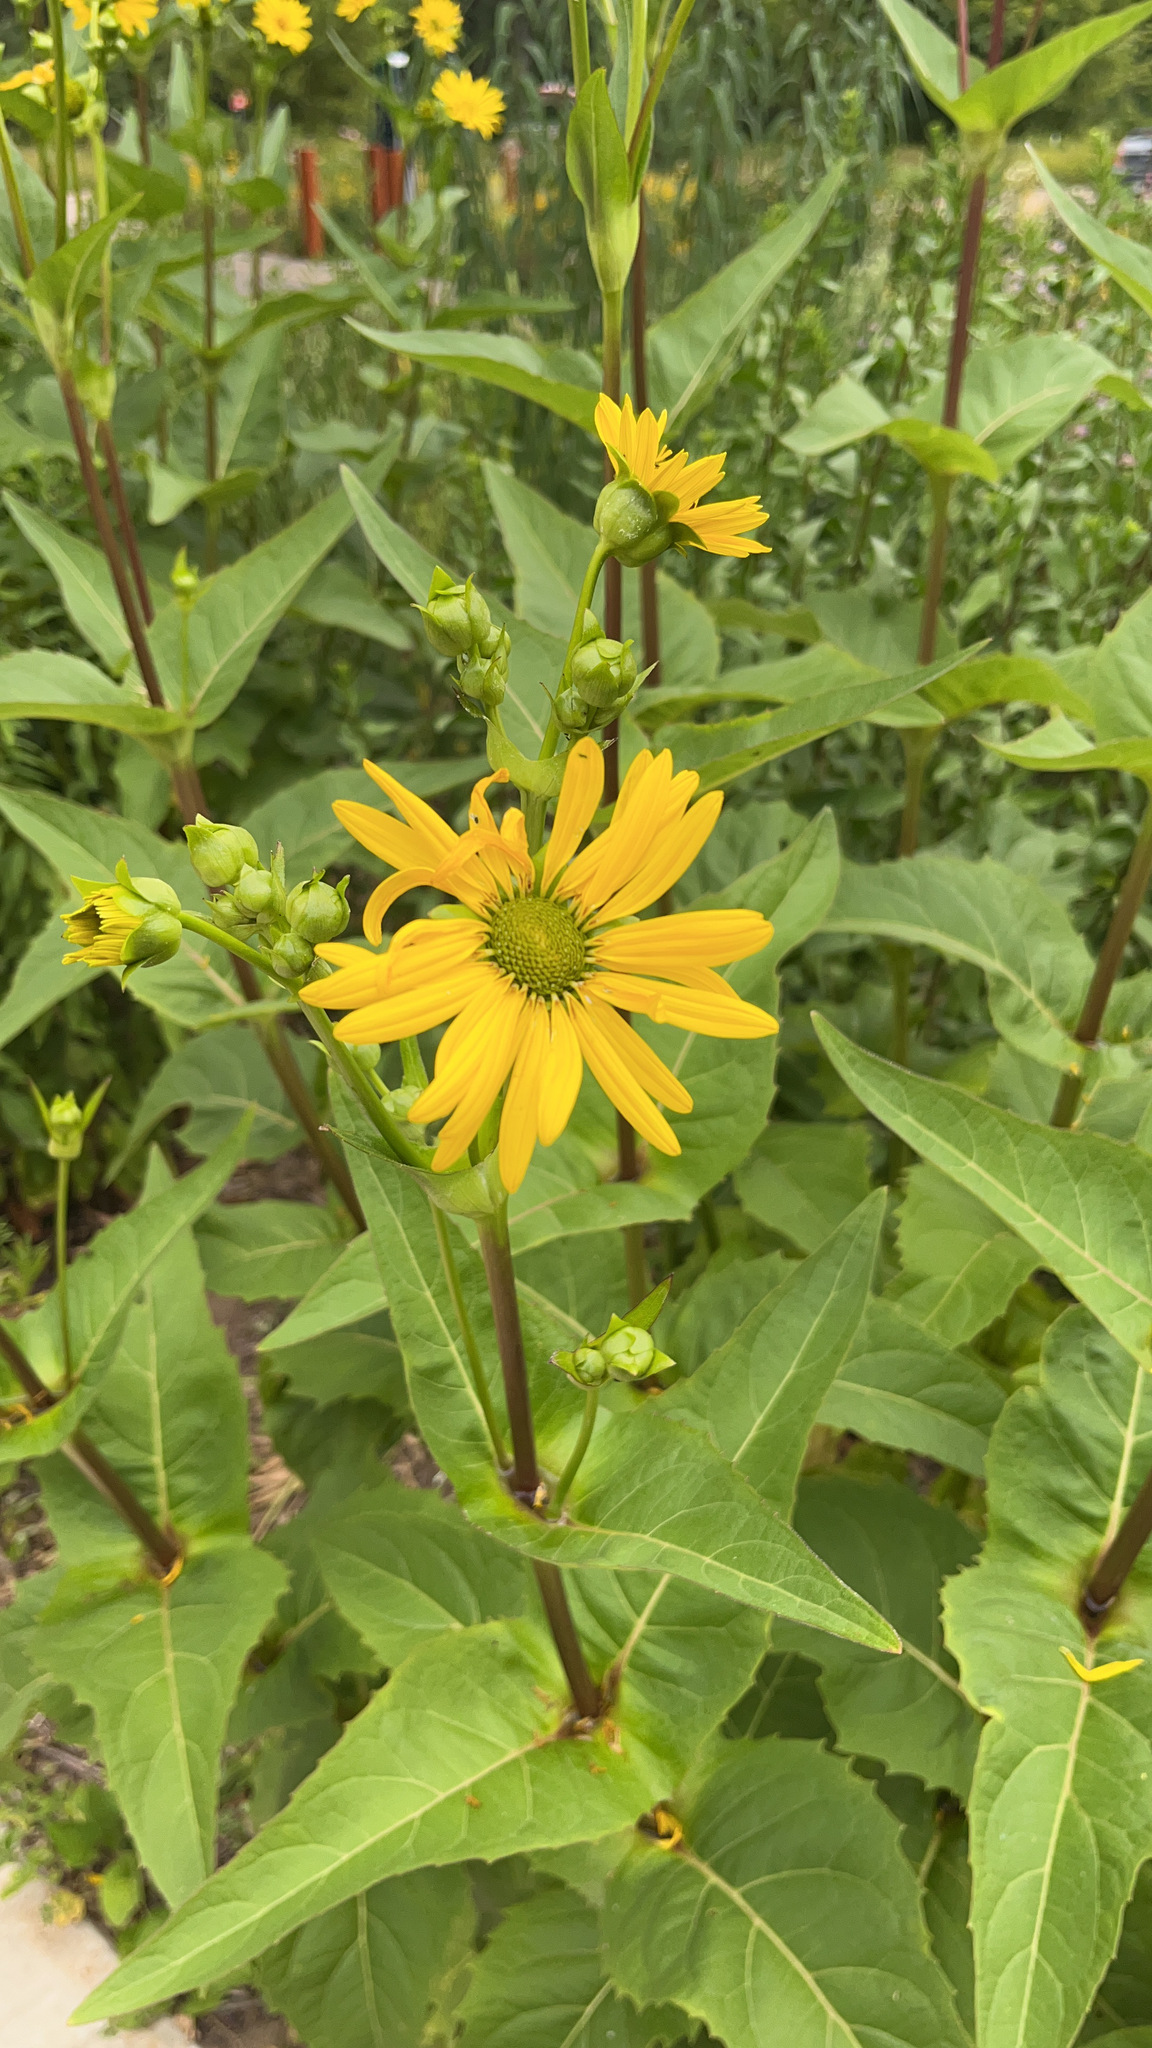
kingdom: Plantae
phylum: Tracheophyta
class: Magnoliopsida
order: Asterales
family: Asteraceae
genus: Silphium
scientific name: Silphium perfoliatum
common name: Cup-plant
